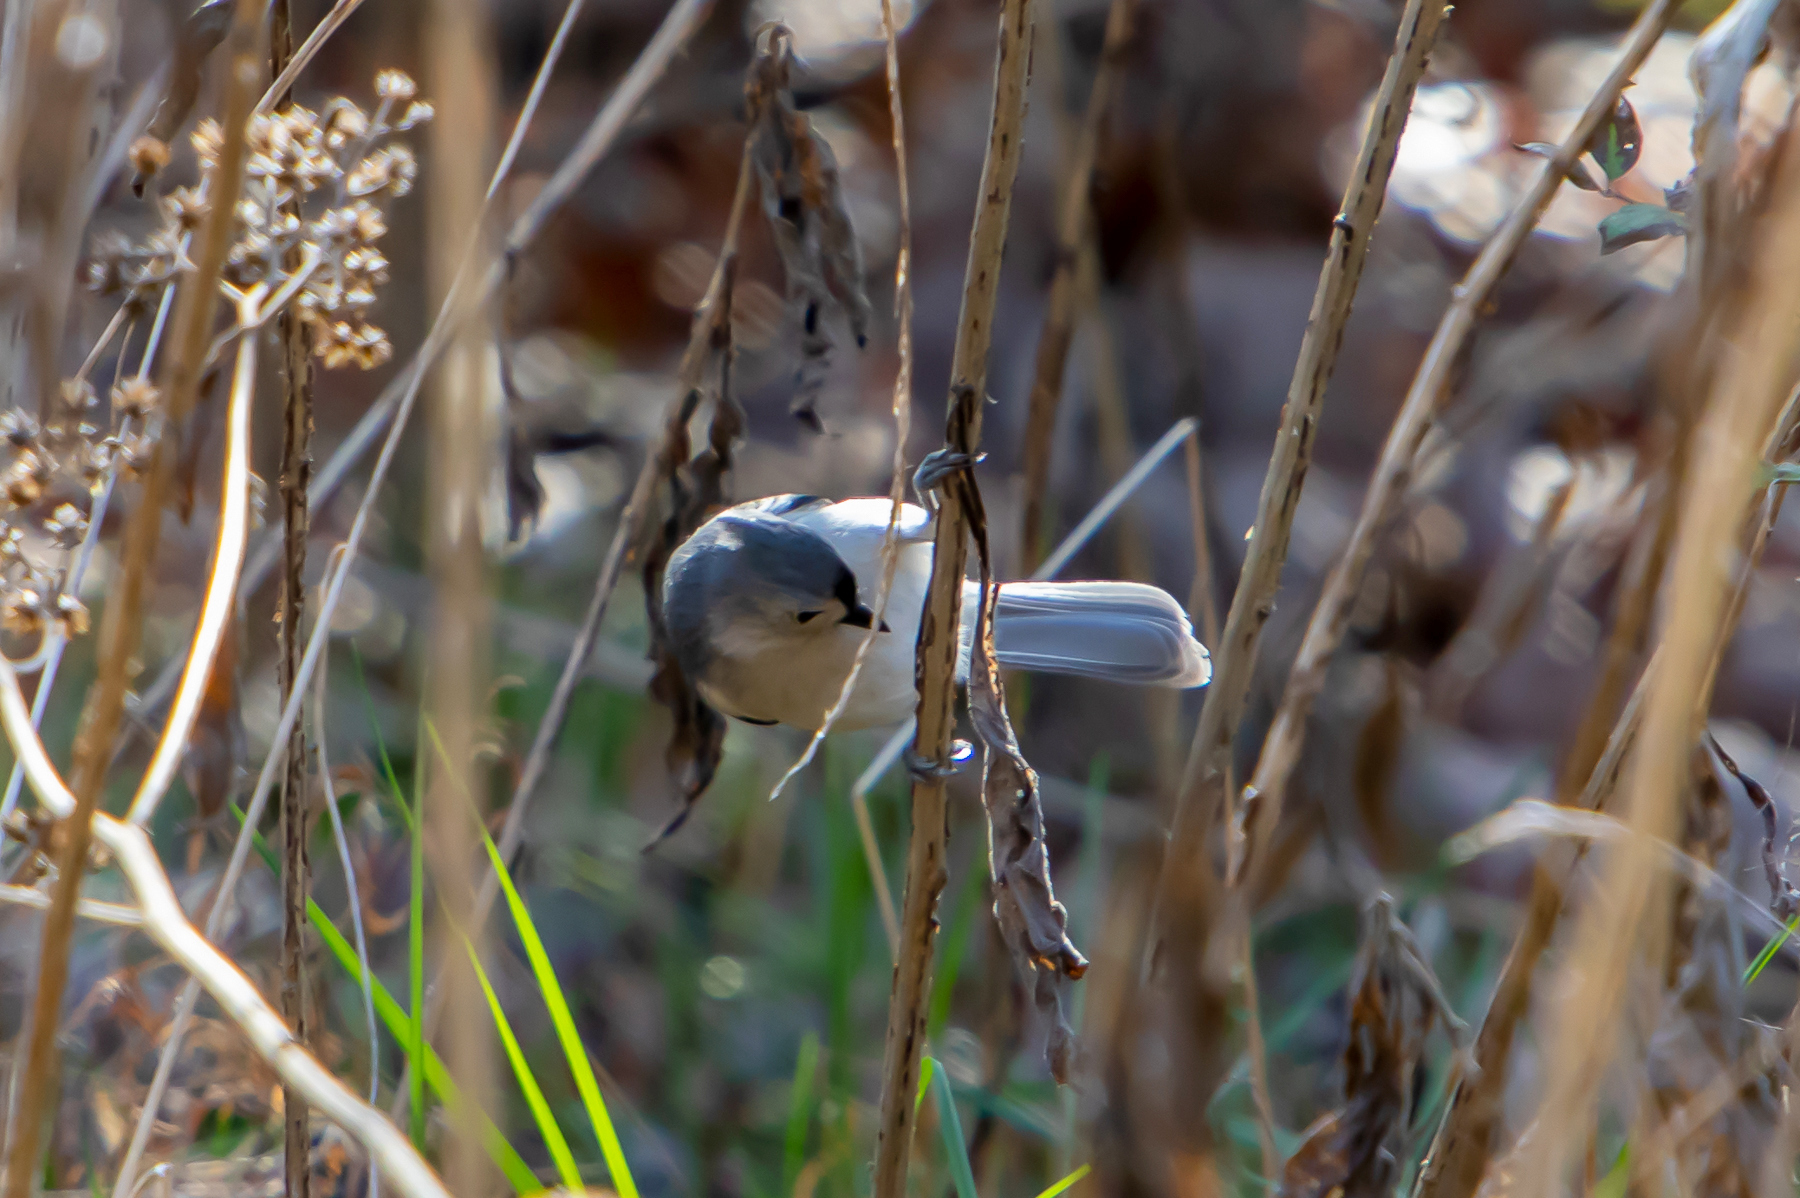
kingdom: Animalia
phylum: Chordata
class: Aves
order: Passeriformes
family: Paridae
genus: Baeolophus
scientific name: Baeolophus bicolor
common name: Tufted titmouse
